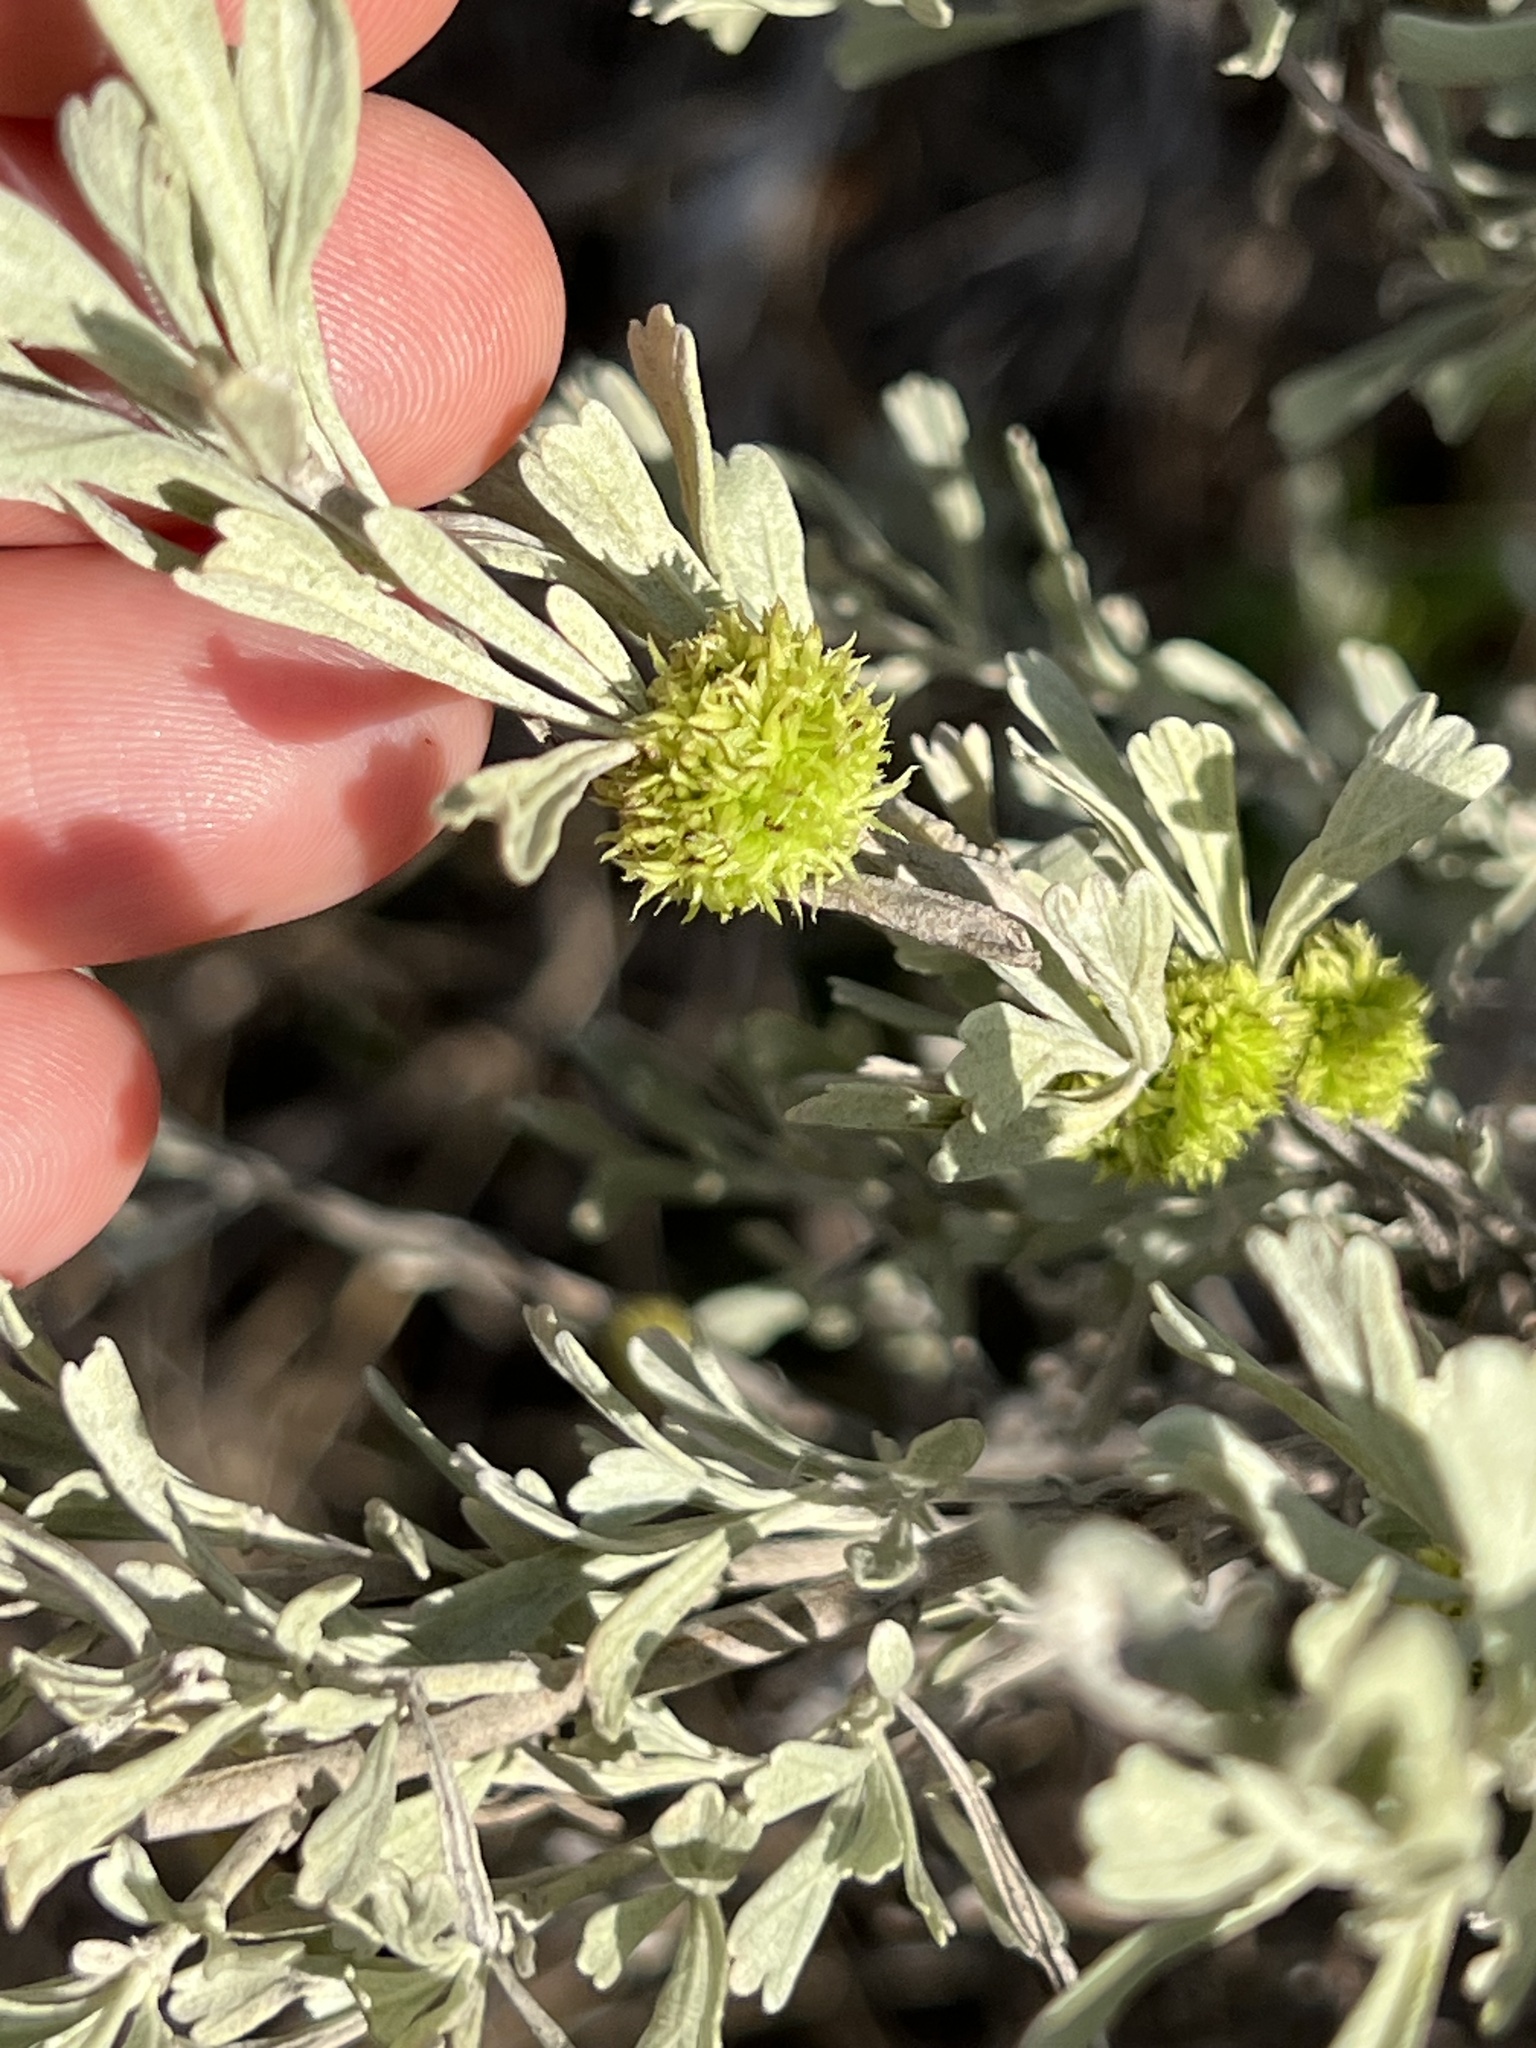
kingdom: Animalia
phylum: Arthropoda
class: Insecta
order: Diptera
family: Cecidomyiidae
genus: Rhopalomyia
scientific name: Rhopalomyia medusa
